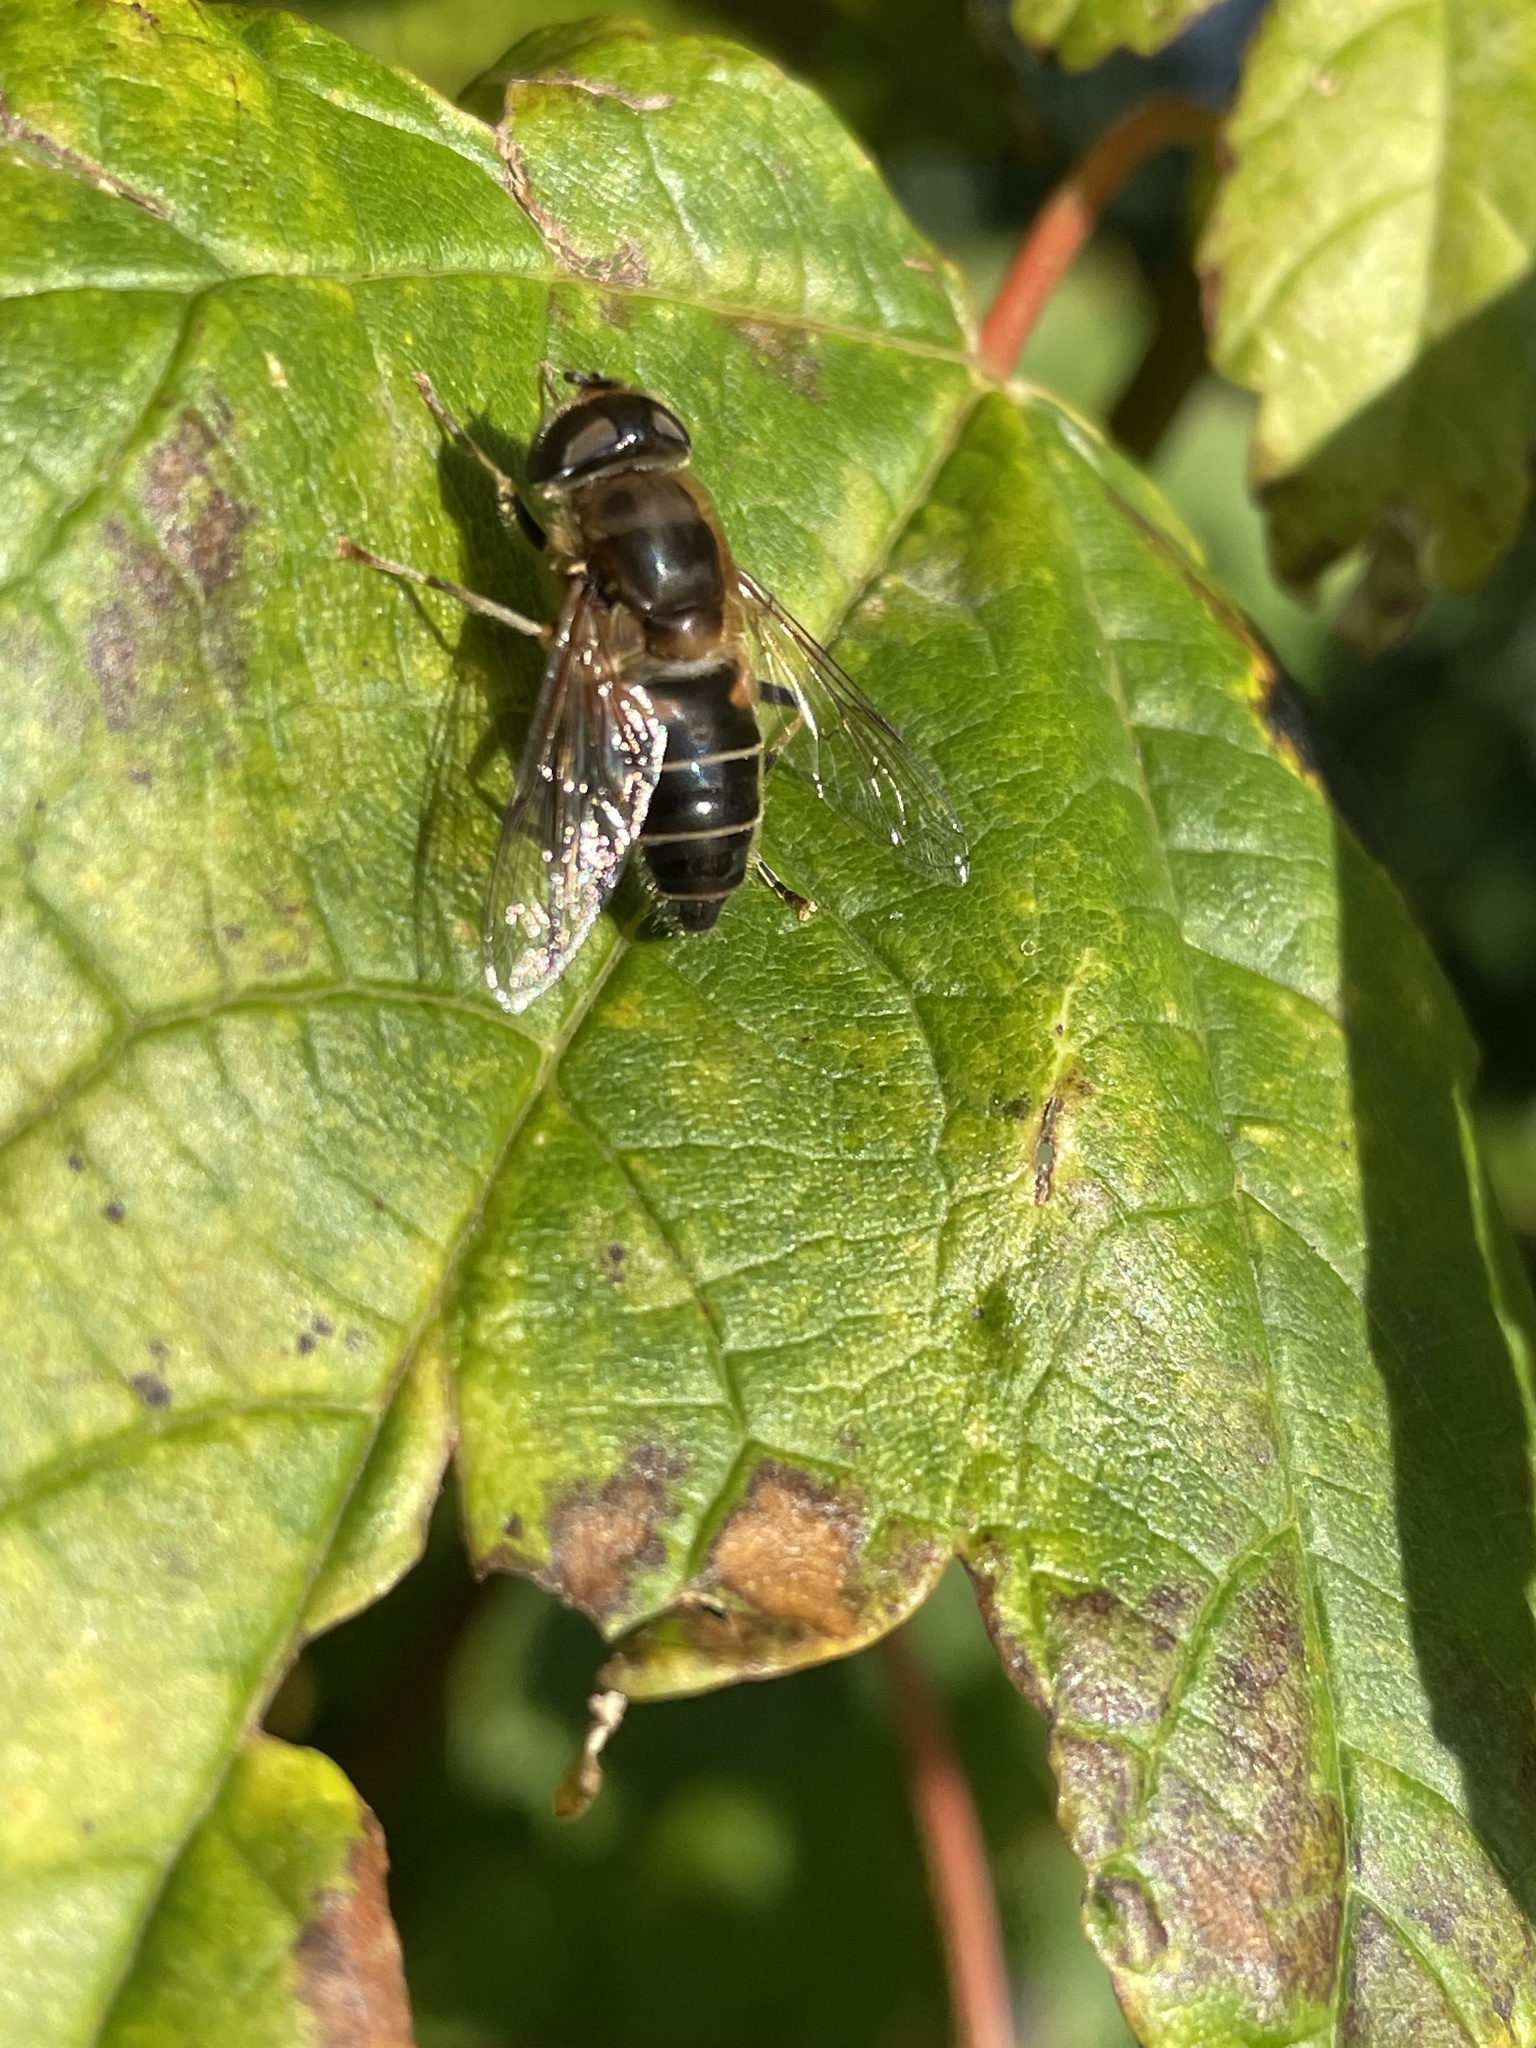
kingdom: Animalia
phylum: Arthropoda
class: Insecta
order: Diptera
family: Syrphidae
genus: Eristalis
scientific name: Eristalis pertinax
